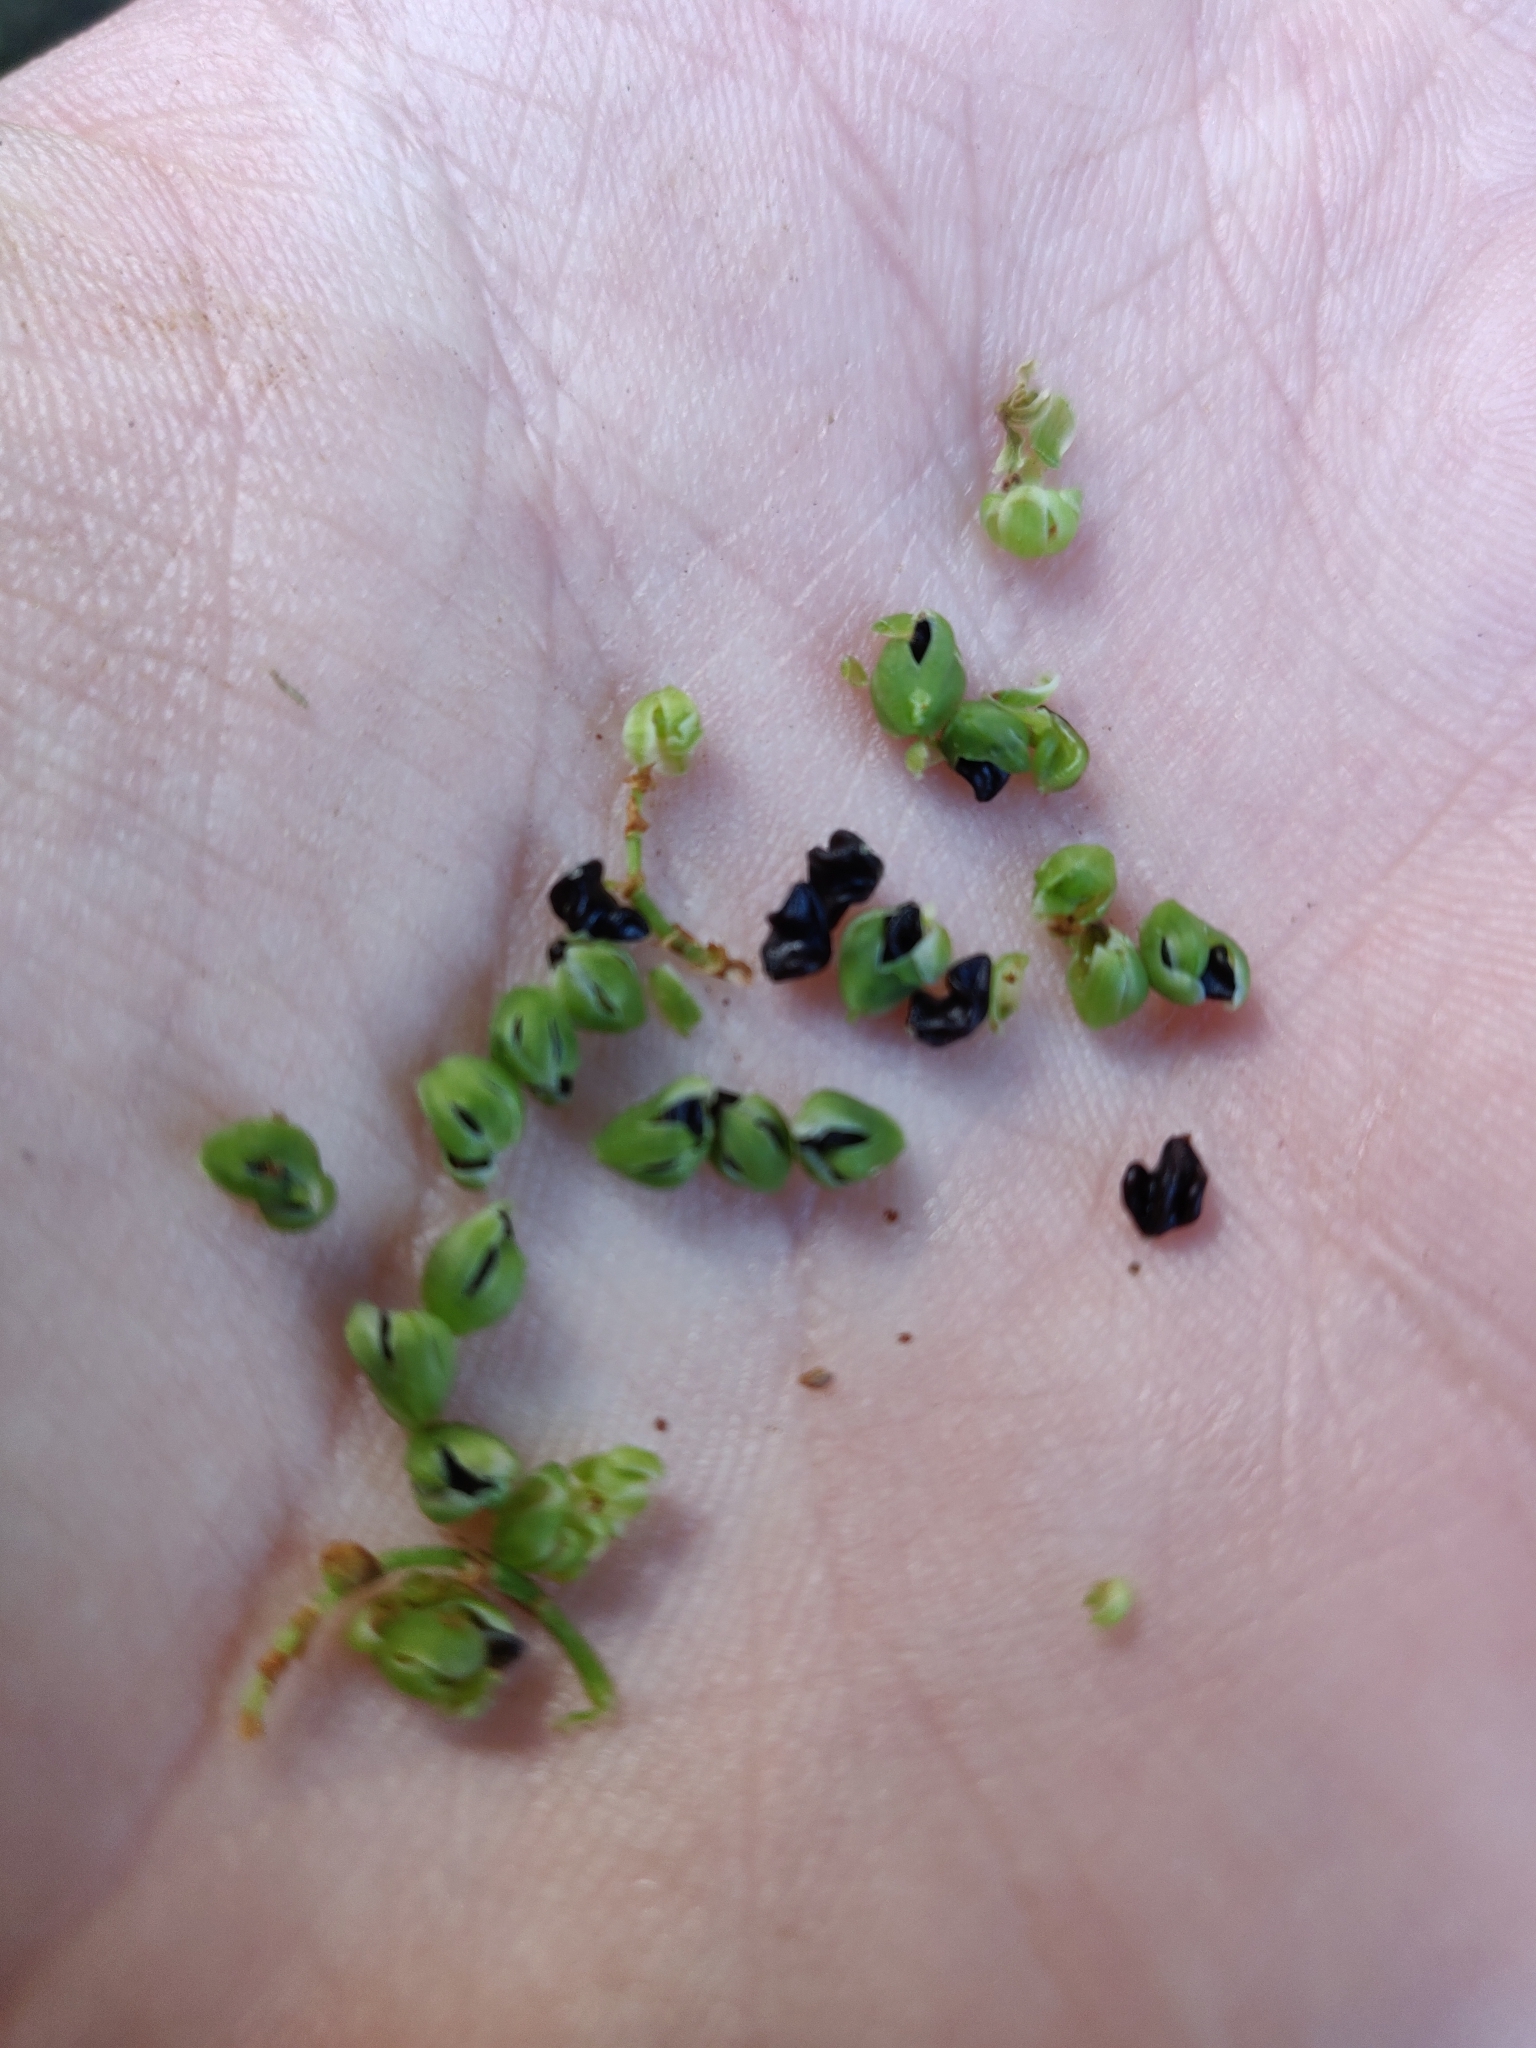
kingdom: Plantae
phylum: Tracheophyta
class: Magnoliopsida
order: Caryophyllales
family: Polygonaceae
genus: Muehlenbeckia
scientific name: Muehlenbeckia australis
